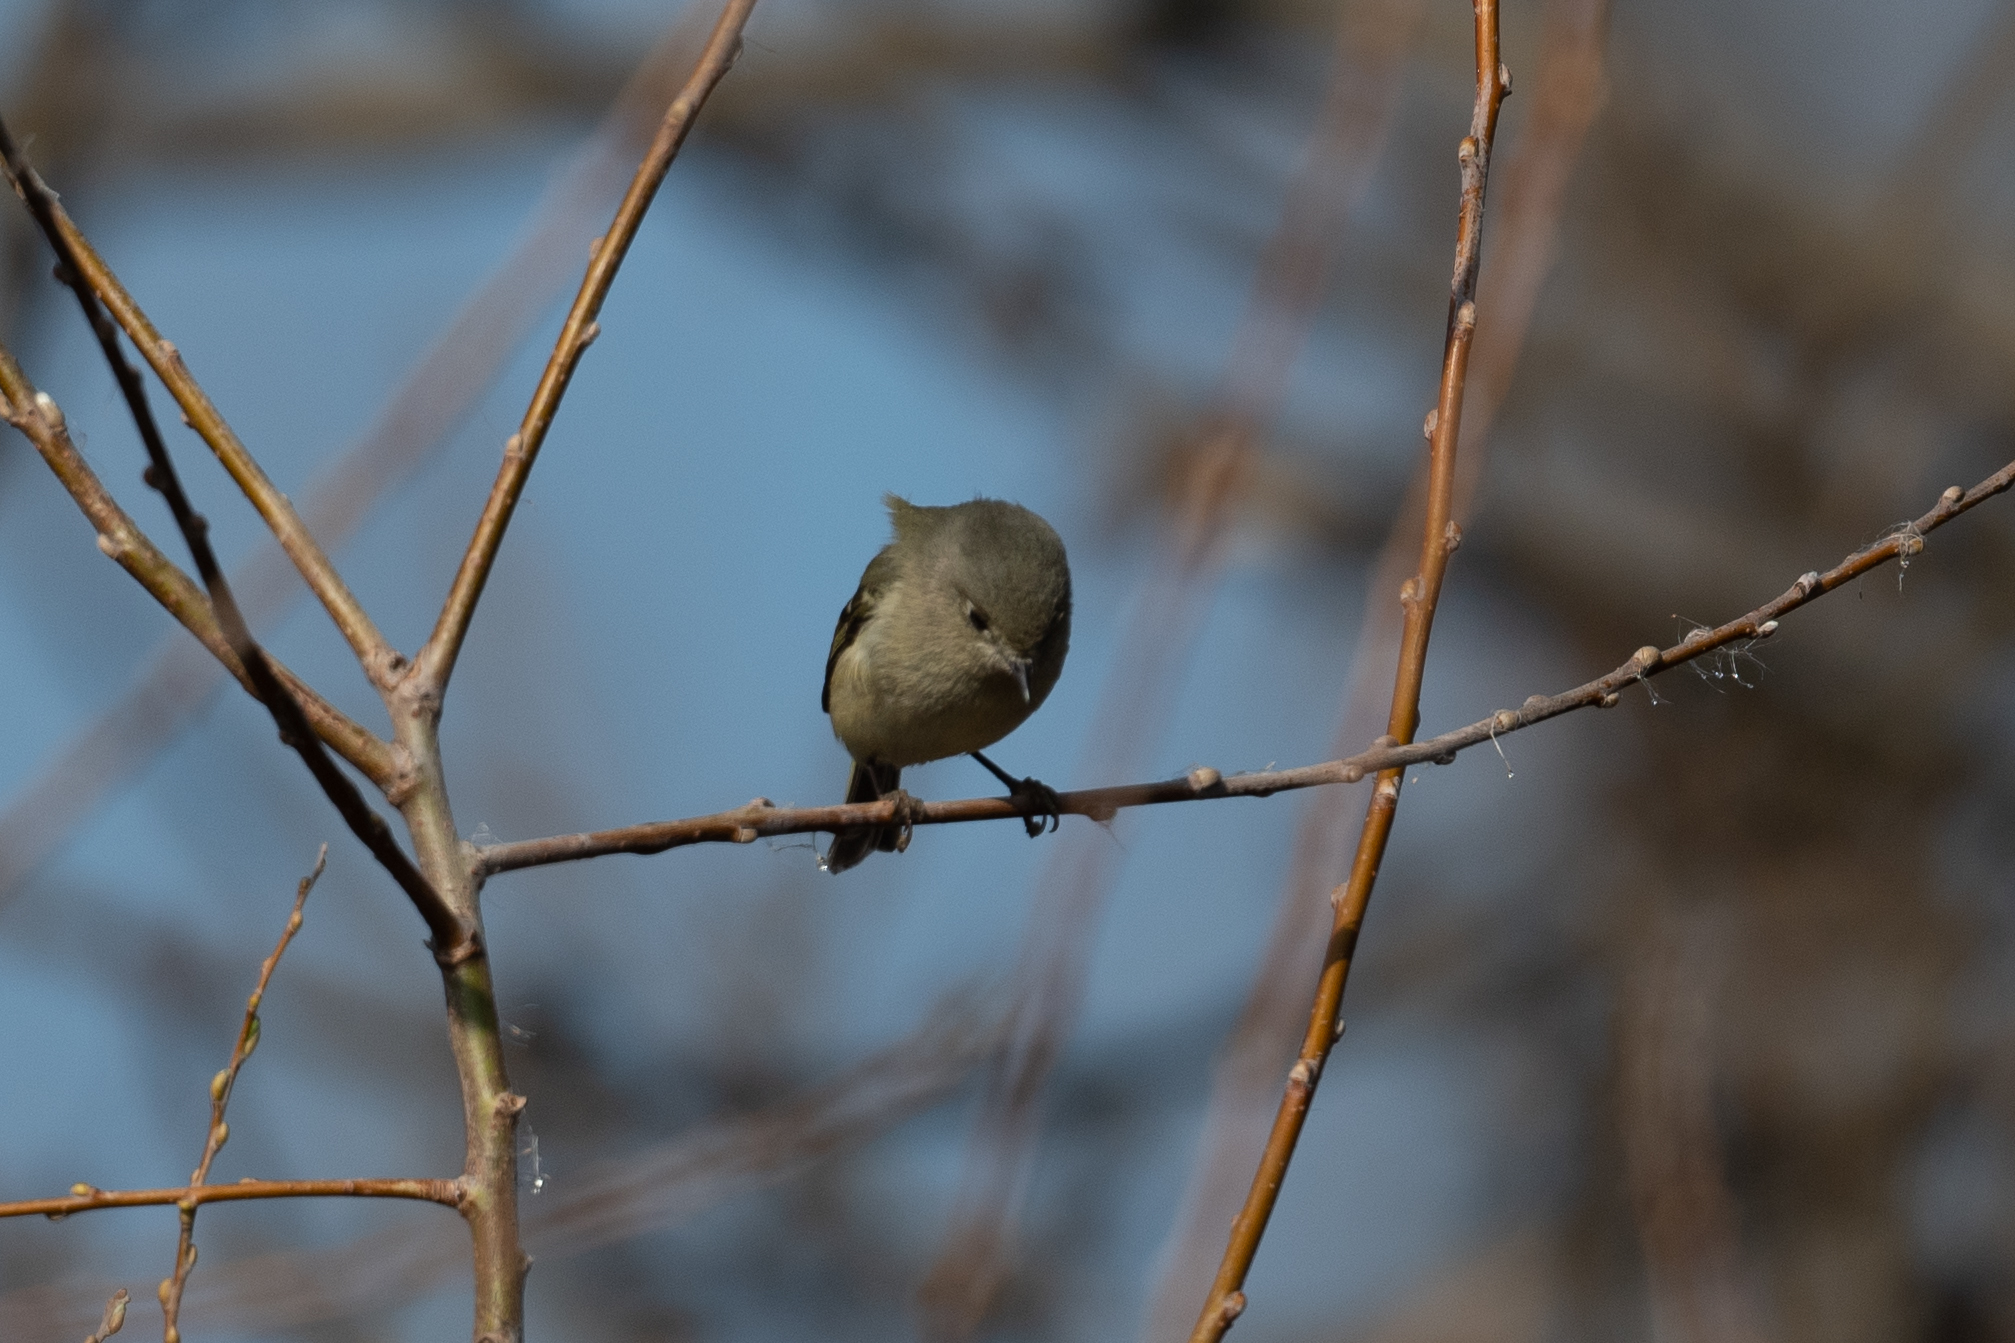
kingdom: Animalia
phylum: Chordata
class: Aves
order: Passeriformes
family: Regulidae
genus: Regulus
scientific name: Regulus calendula
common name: Ruby-crowned kinglet
